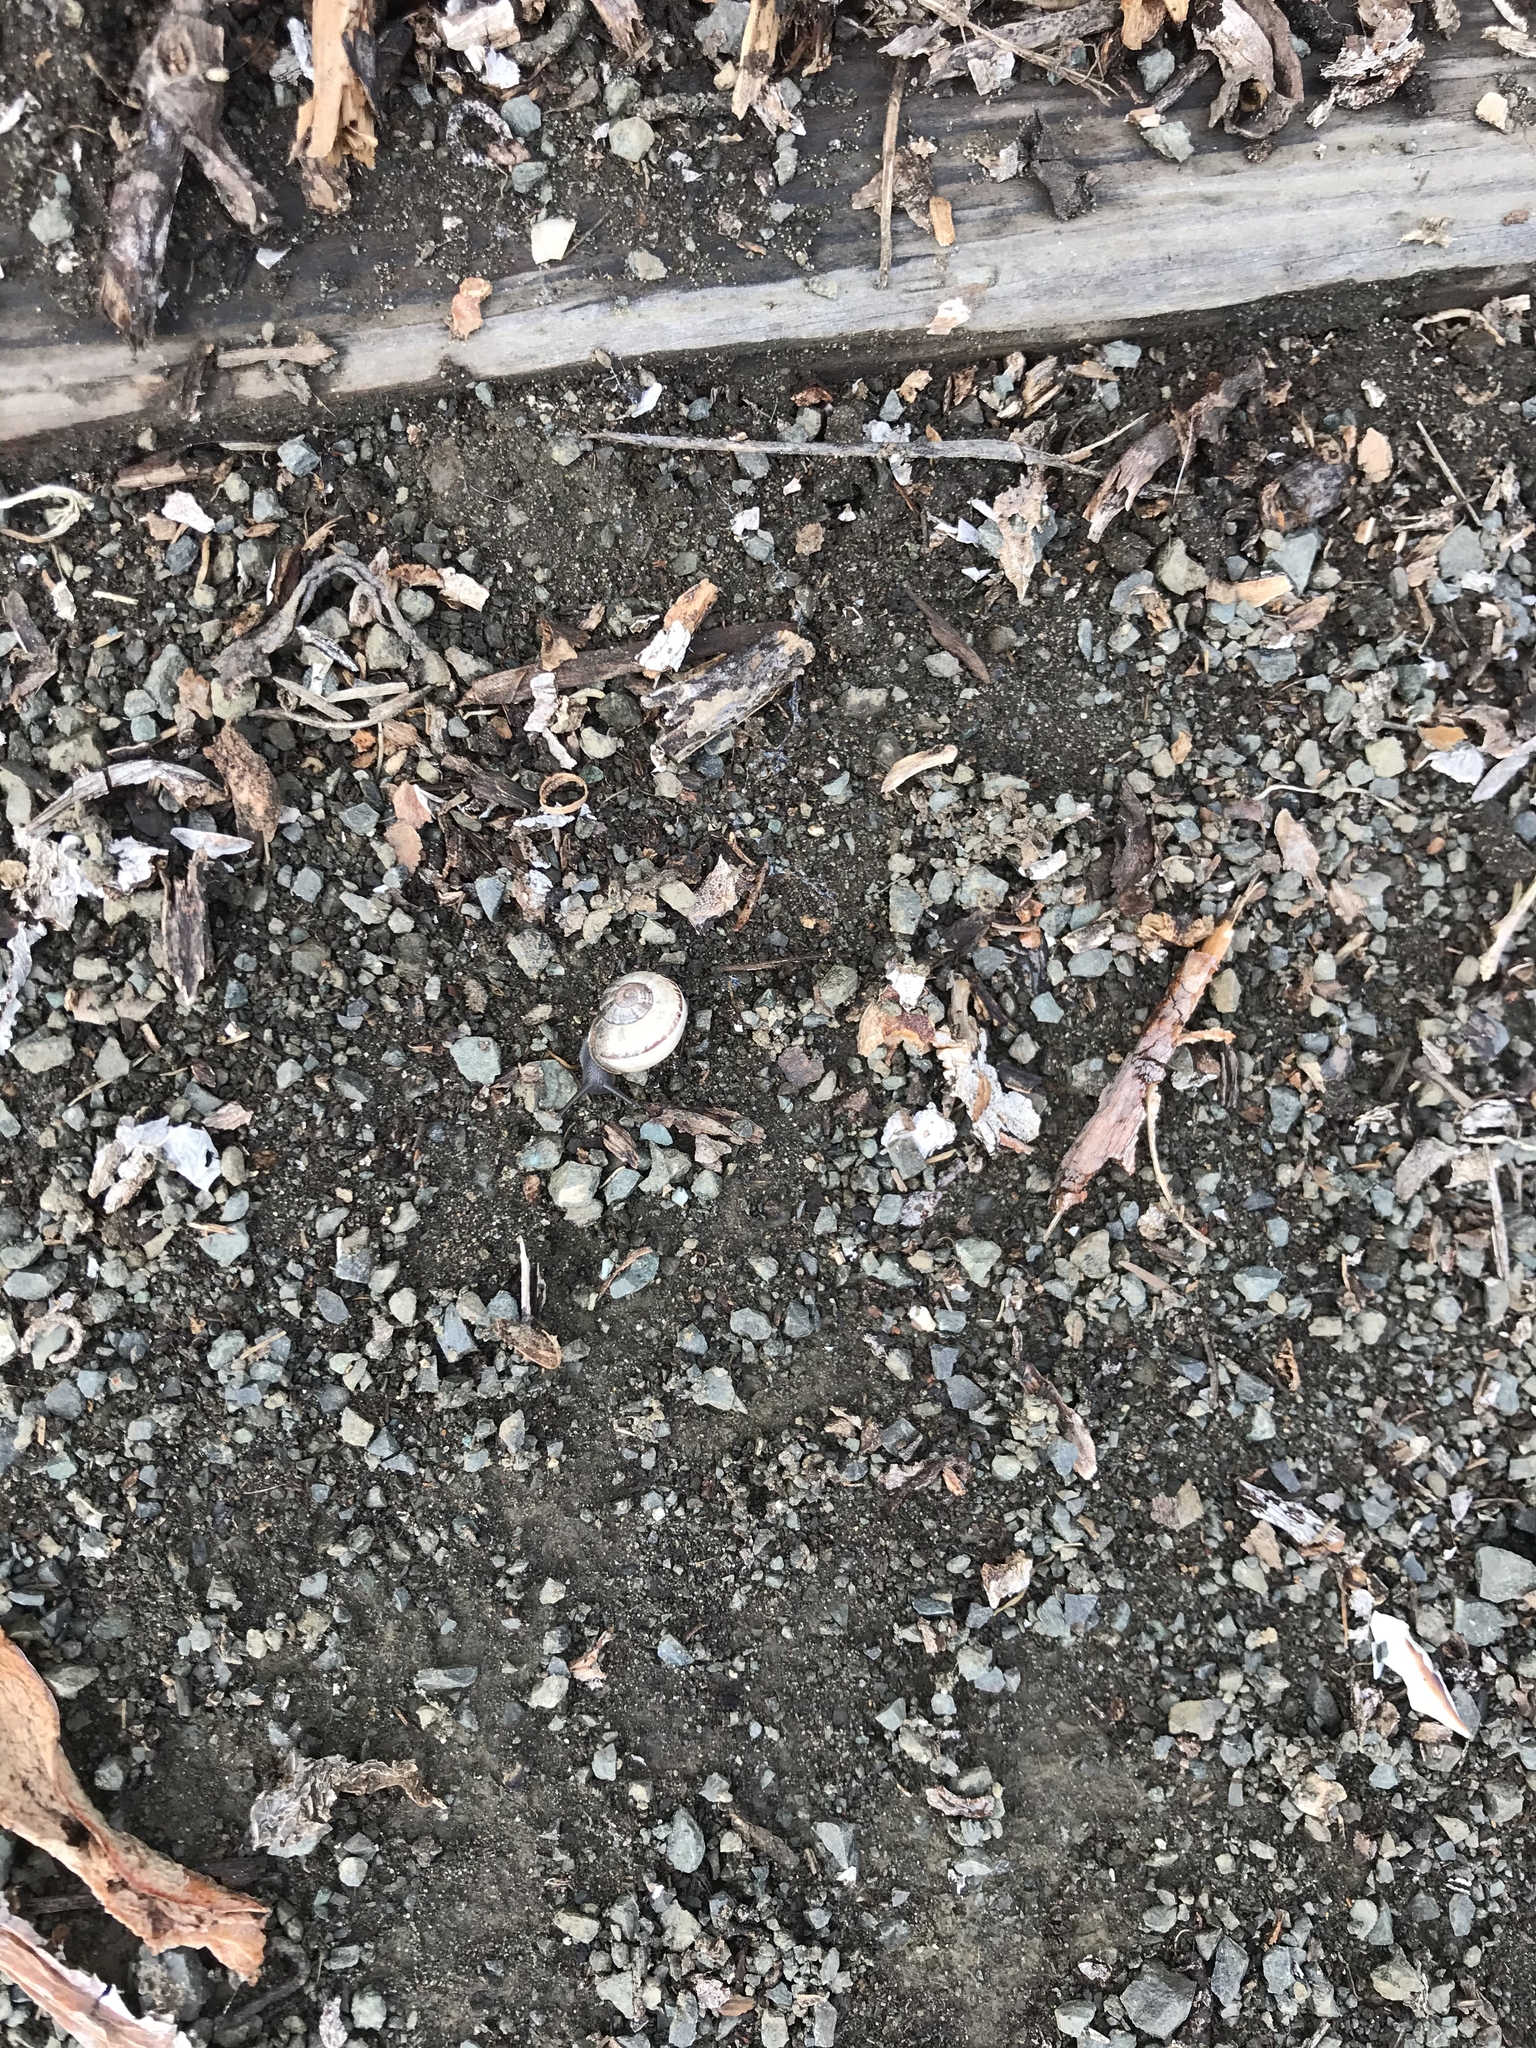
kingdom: Animalia
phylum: Mollusca
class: Gastropoda
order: Stylommatophora
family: Helicidae
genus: Otala
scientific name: Otala lactea
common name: Milk snail
